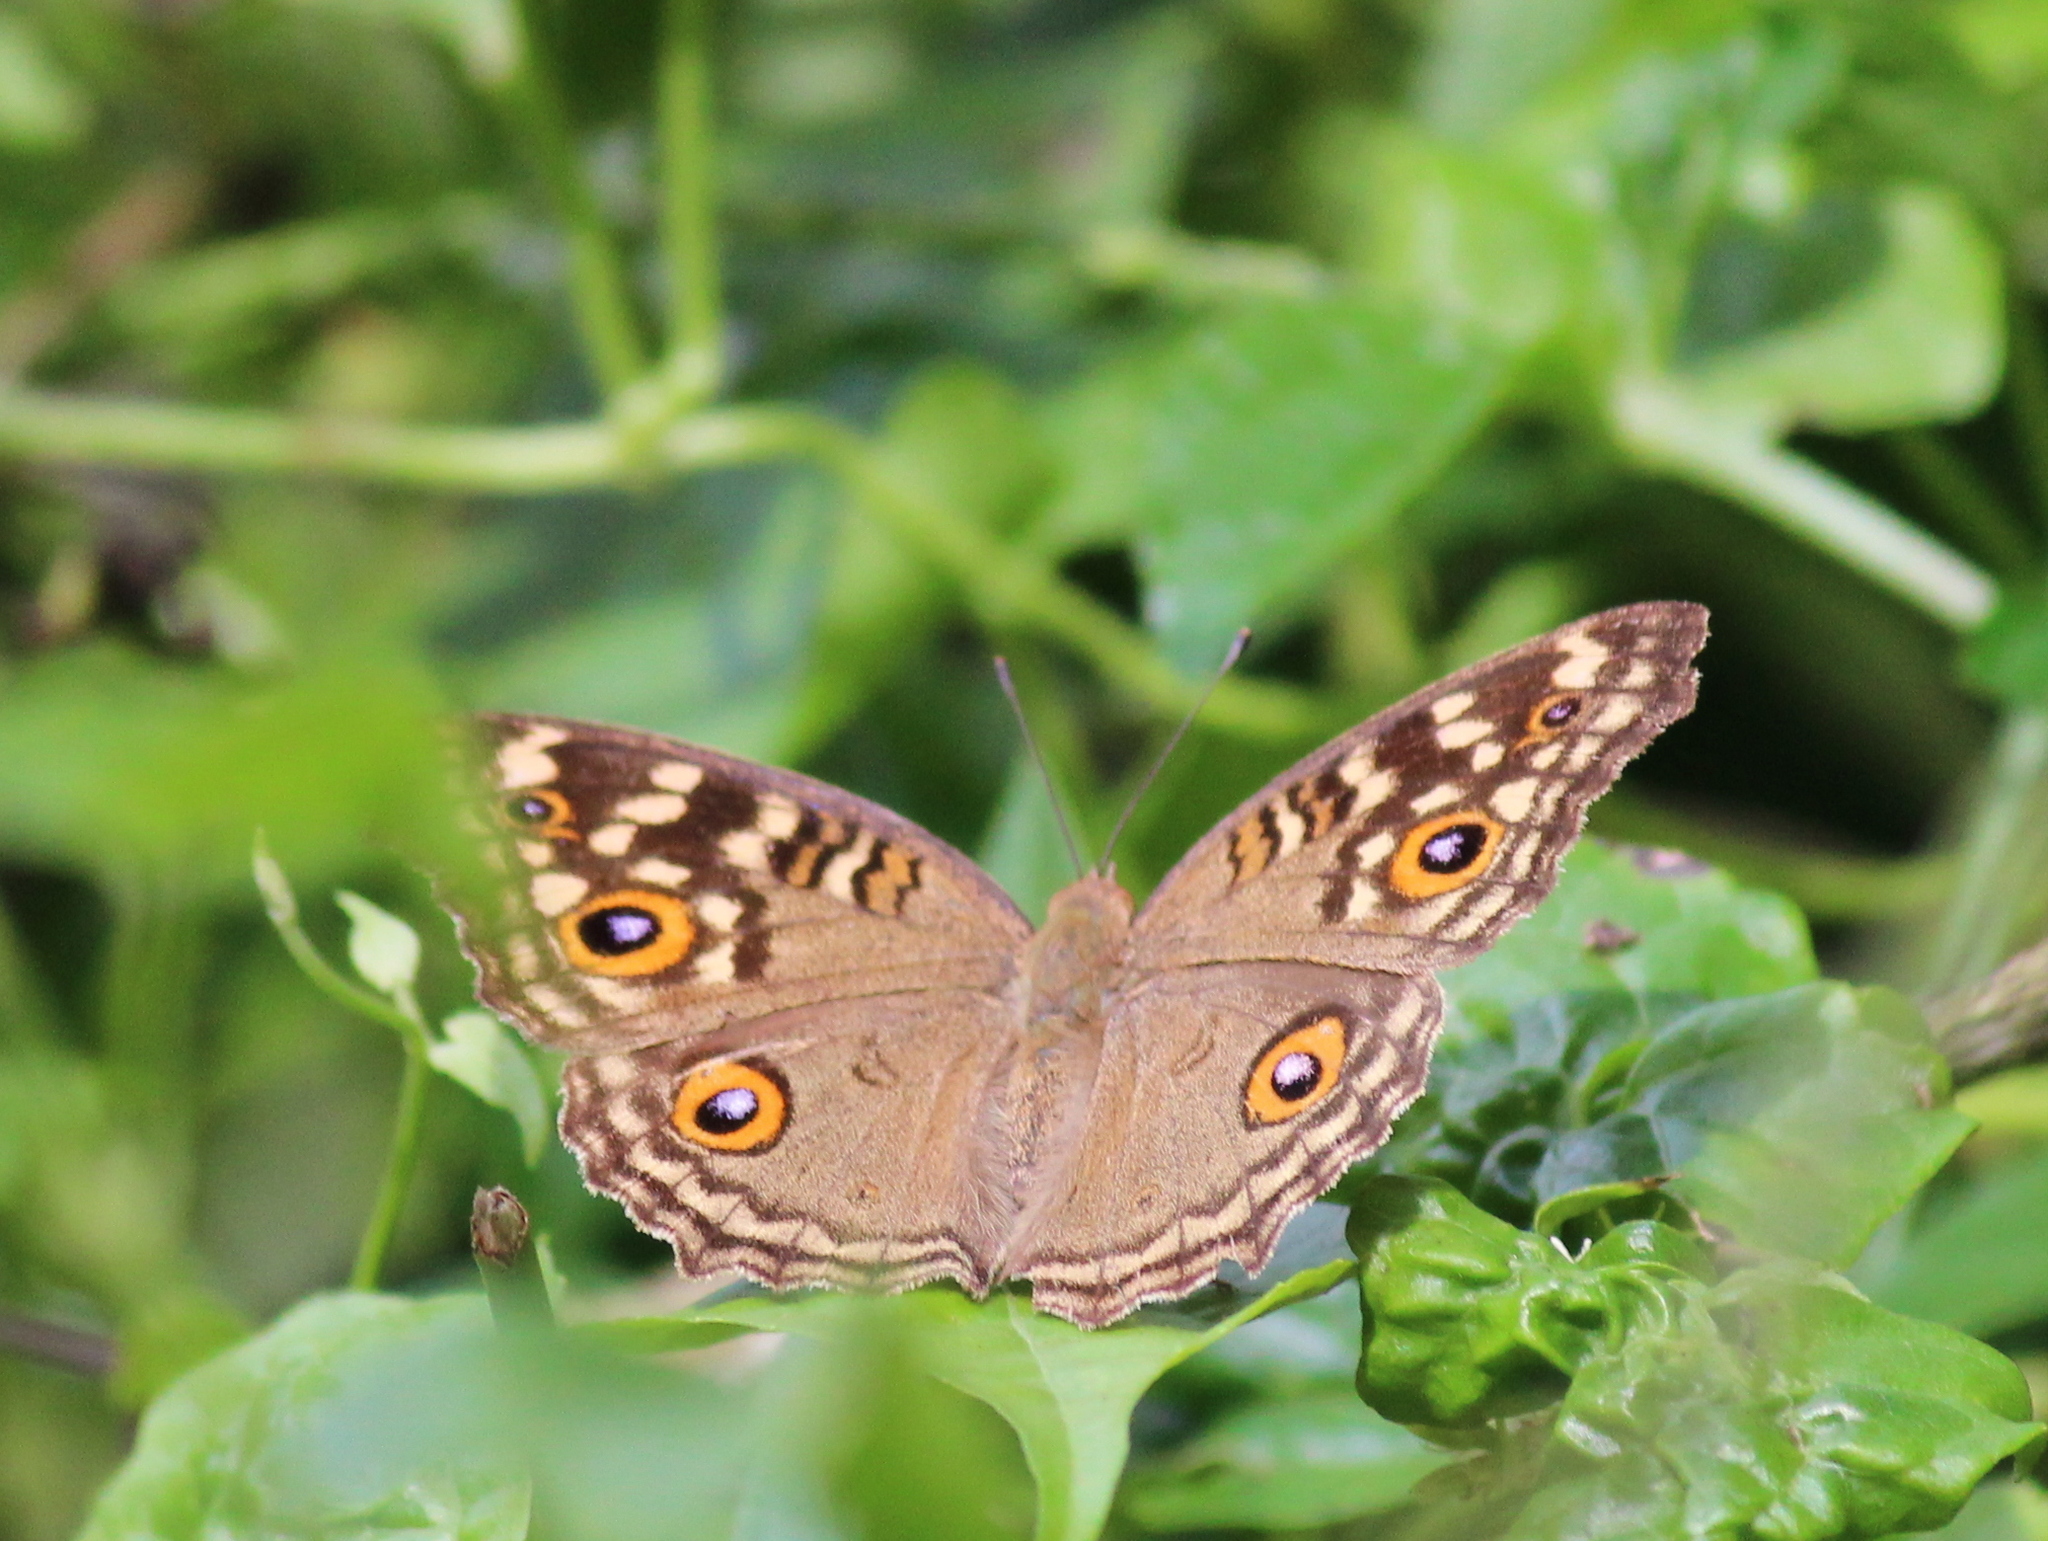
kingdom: Animalia
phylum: Arthropoda
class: Insecta
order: Lepidoptera
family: Nymphalidae
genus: Junonia
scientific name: Junonia lemonias
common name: Lemon pansy
